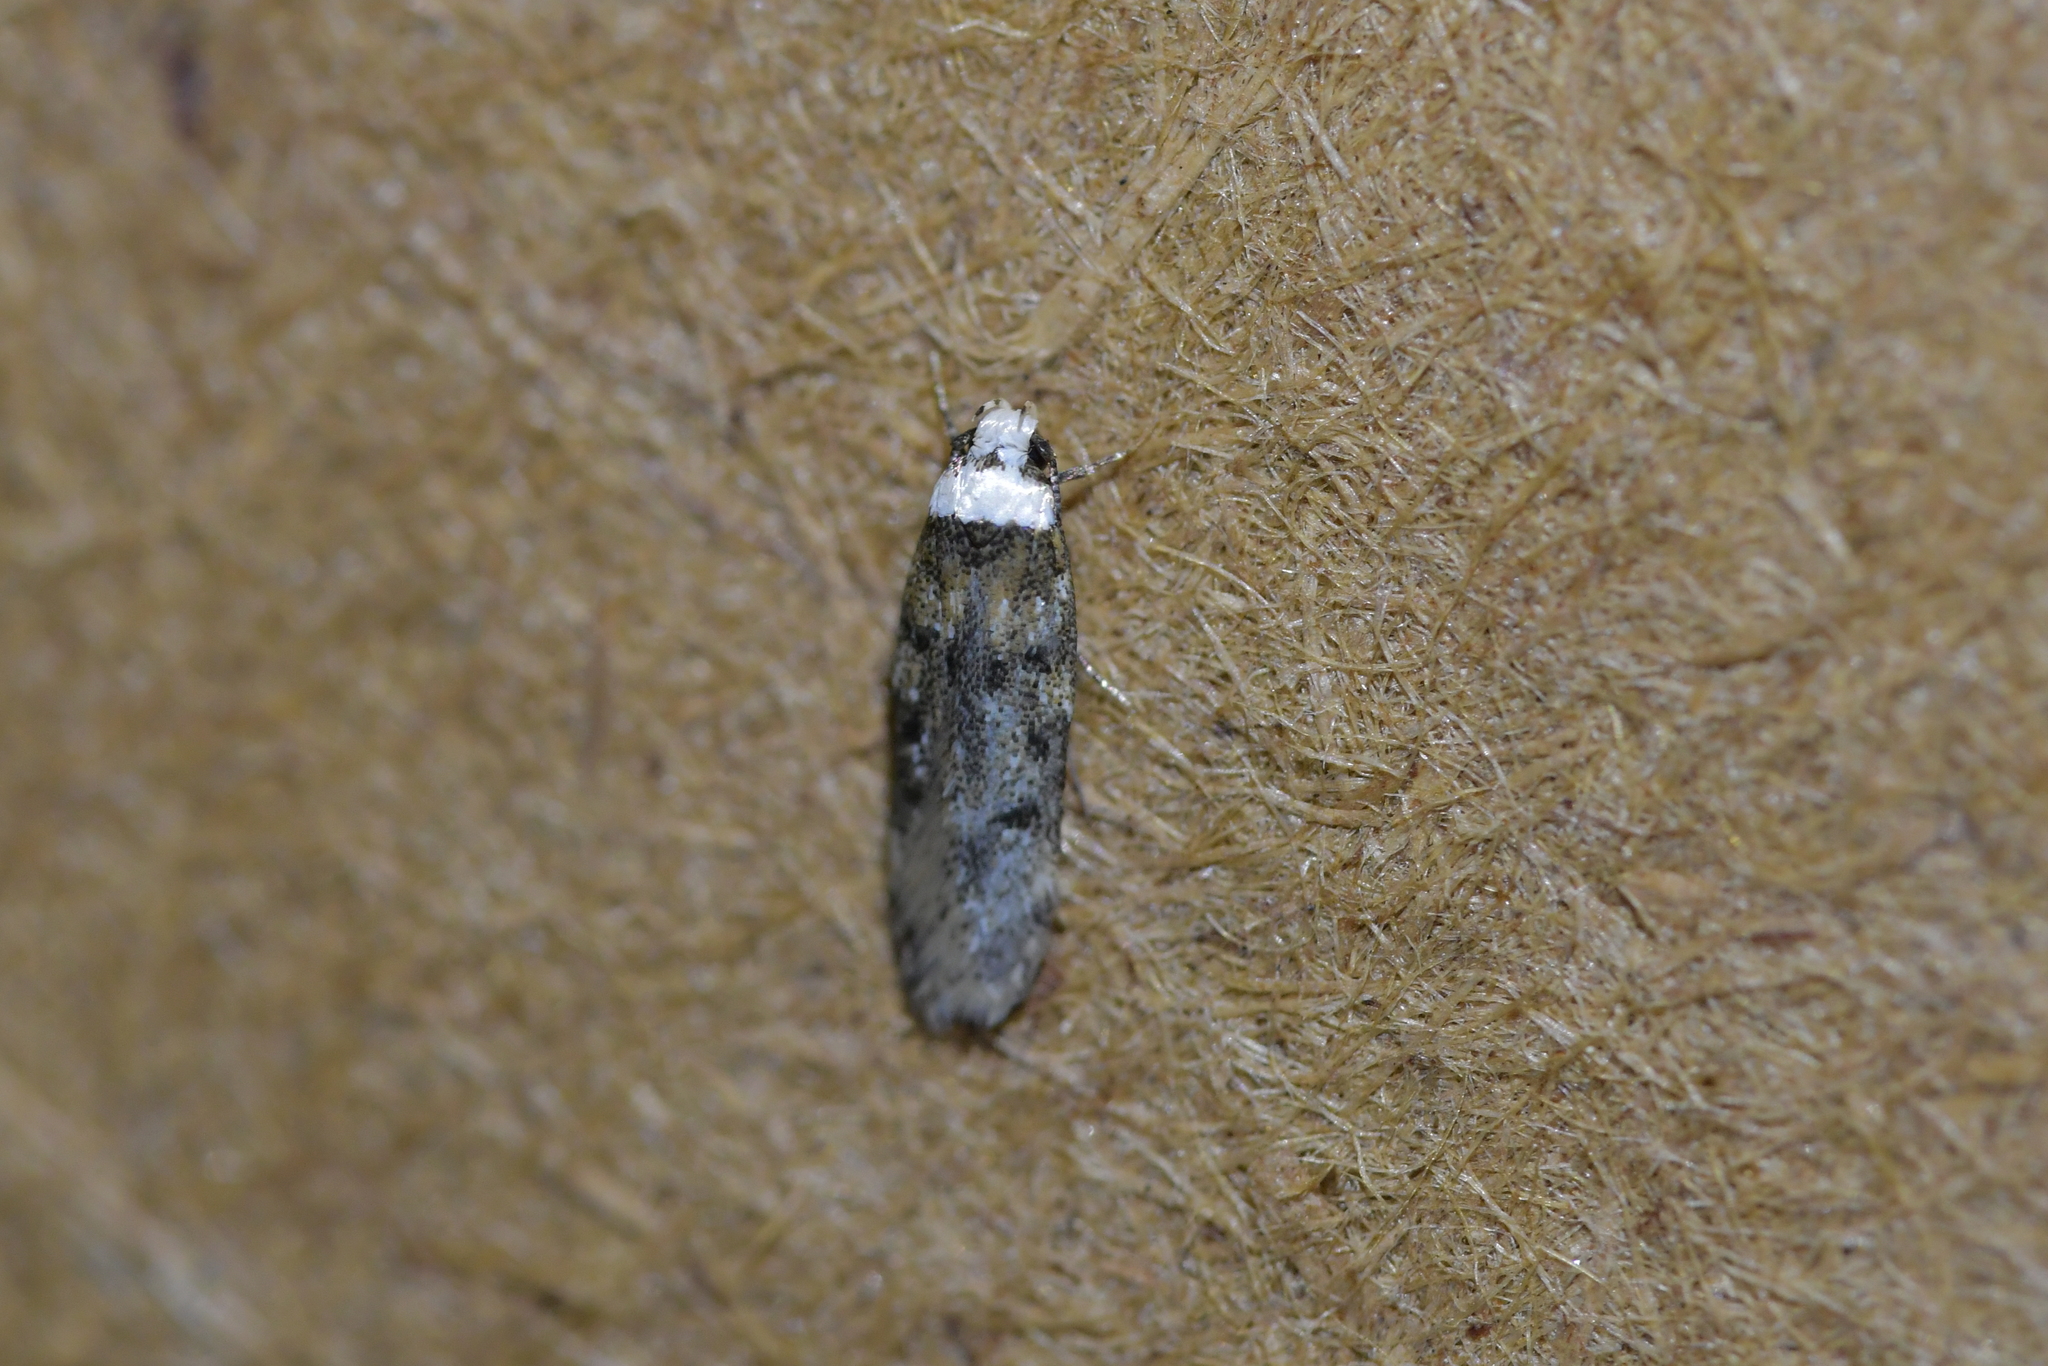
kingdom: Animalia
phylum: Arthropoda
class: Insecta
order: Lepidoptera
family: Oecophoridae
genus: Endrosis
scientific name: Endrosis sarcitrella
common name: White-shouldered house moth
